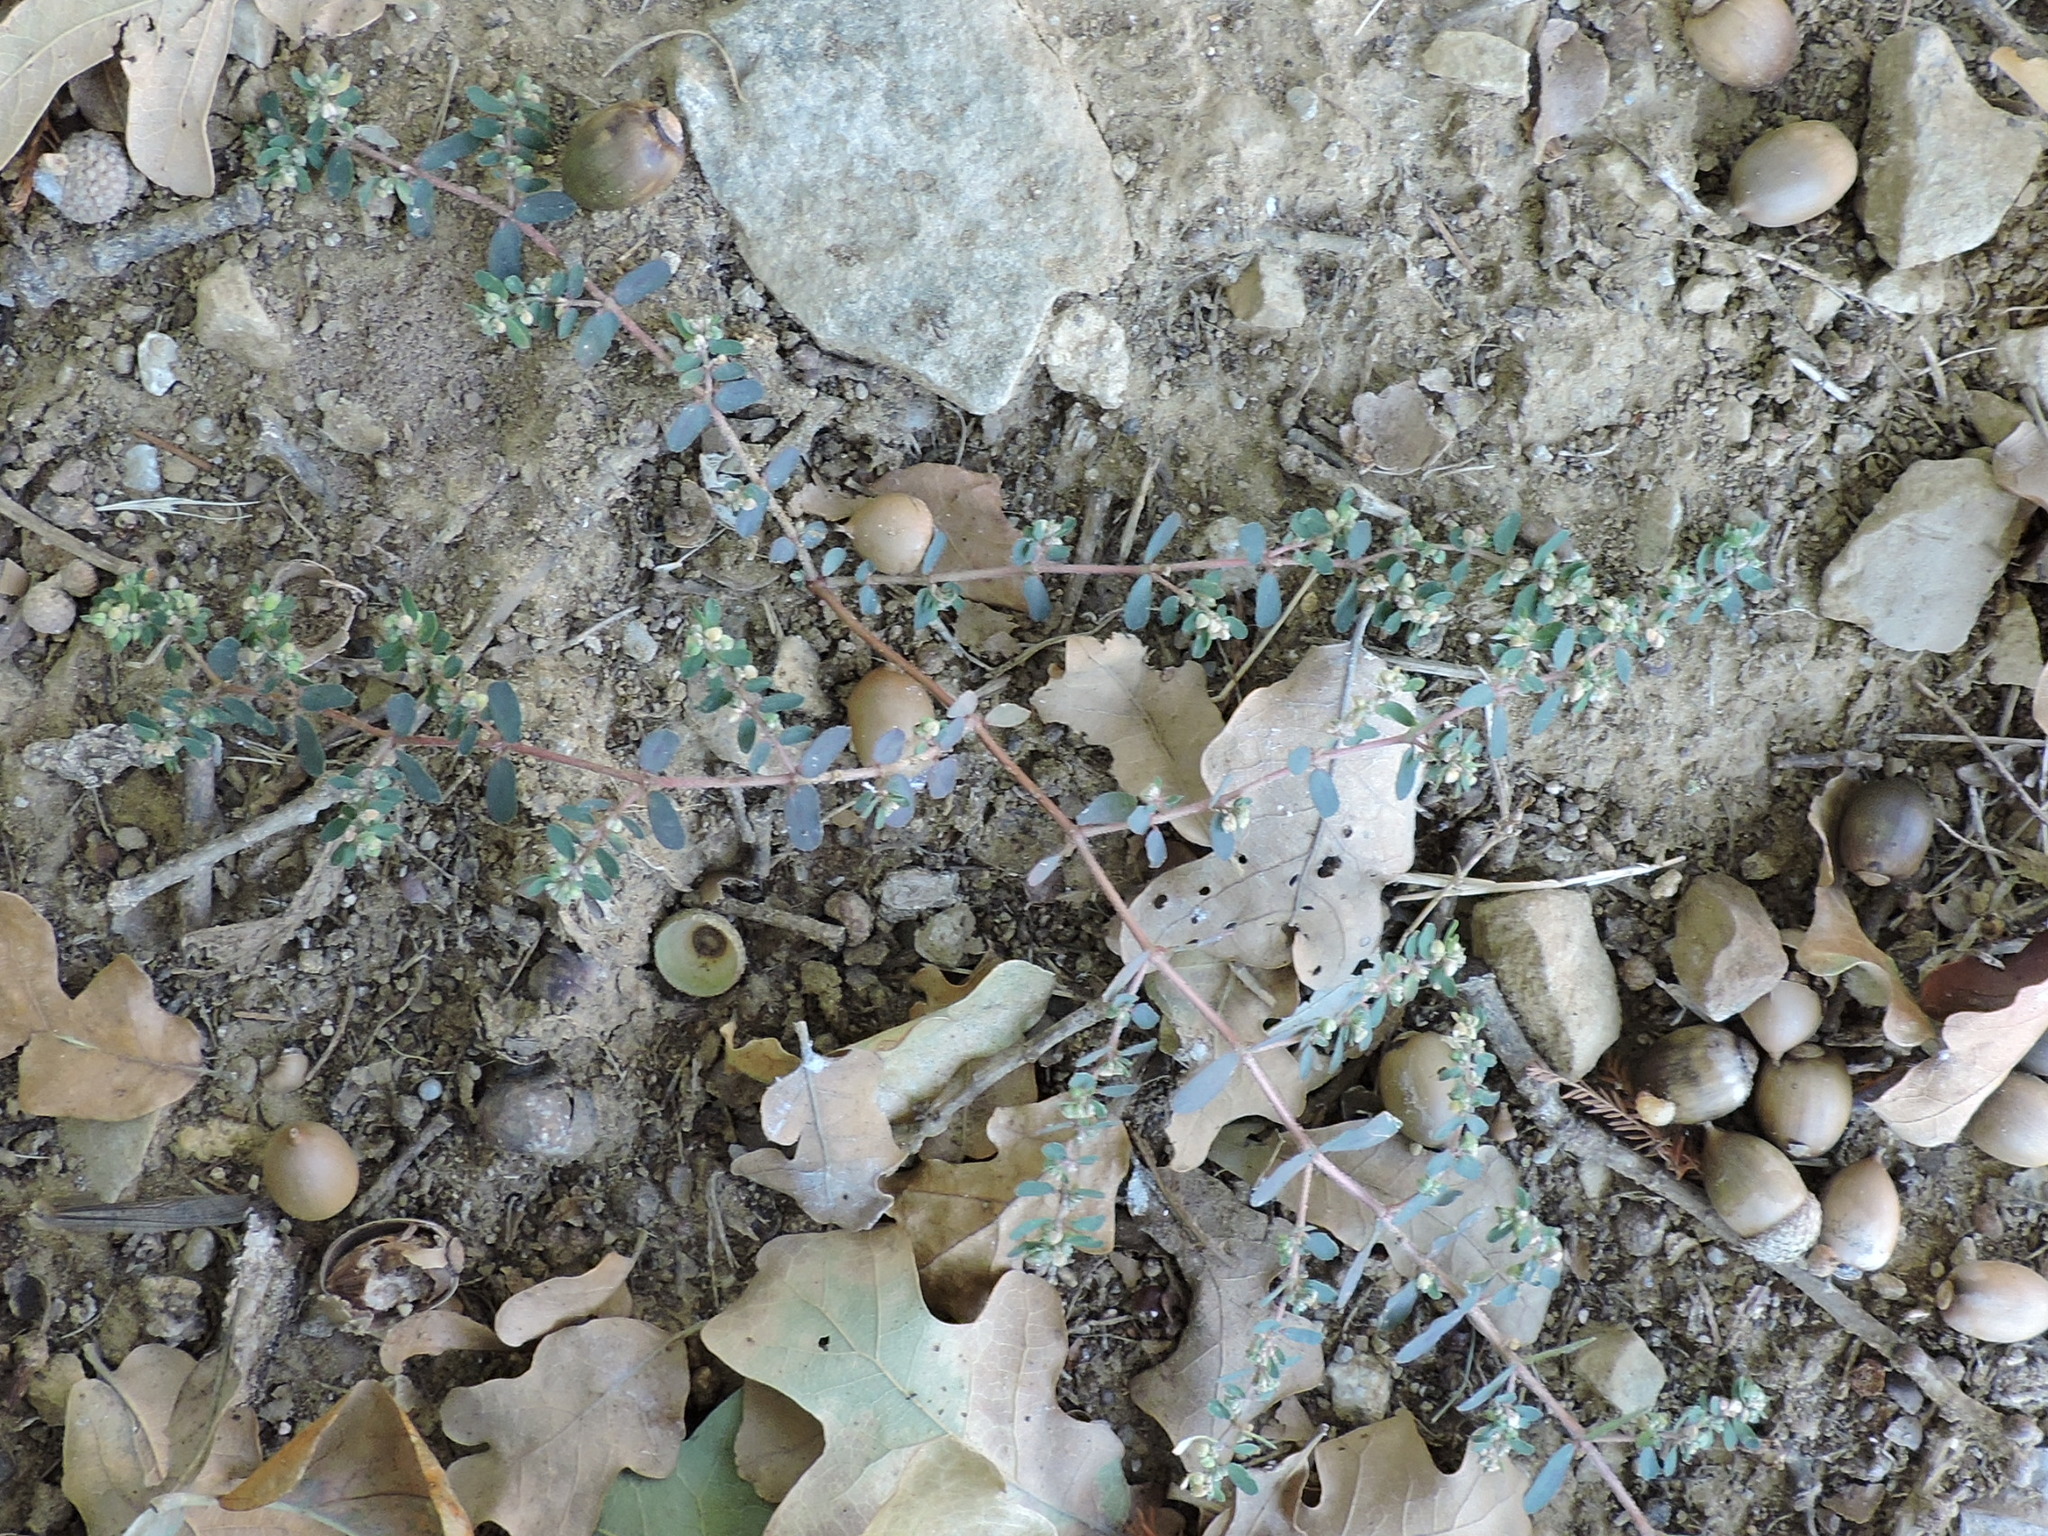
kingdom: Plantae
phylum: Tracheophyta
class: Magnoliopsida
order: Malpighiales
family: Euphorbiaceae
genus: Euphorbia
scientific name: Euphorbia maculata
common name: Spotted spurge
